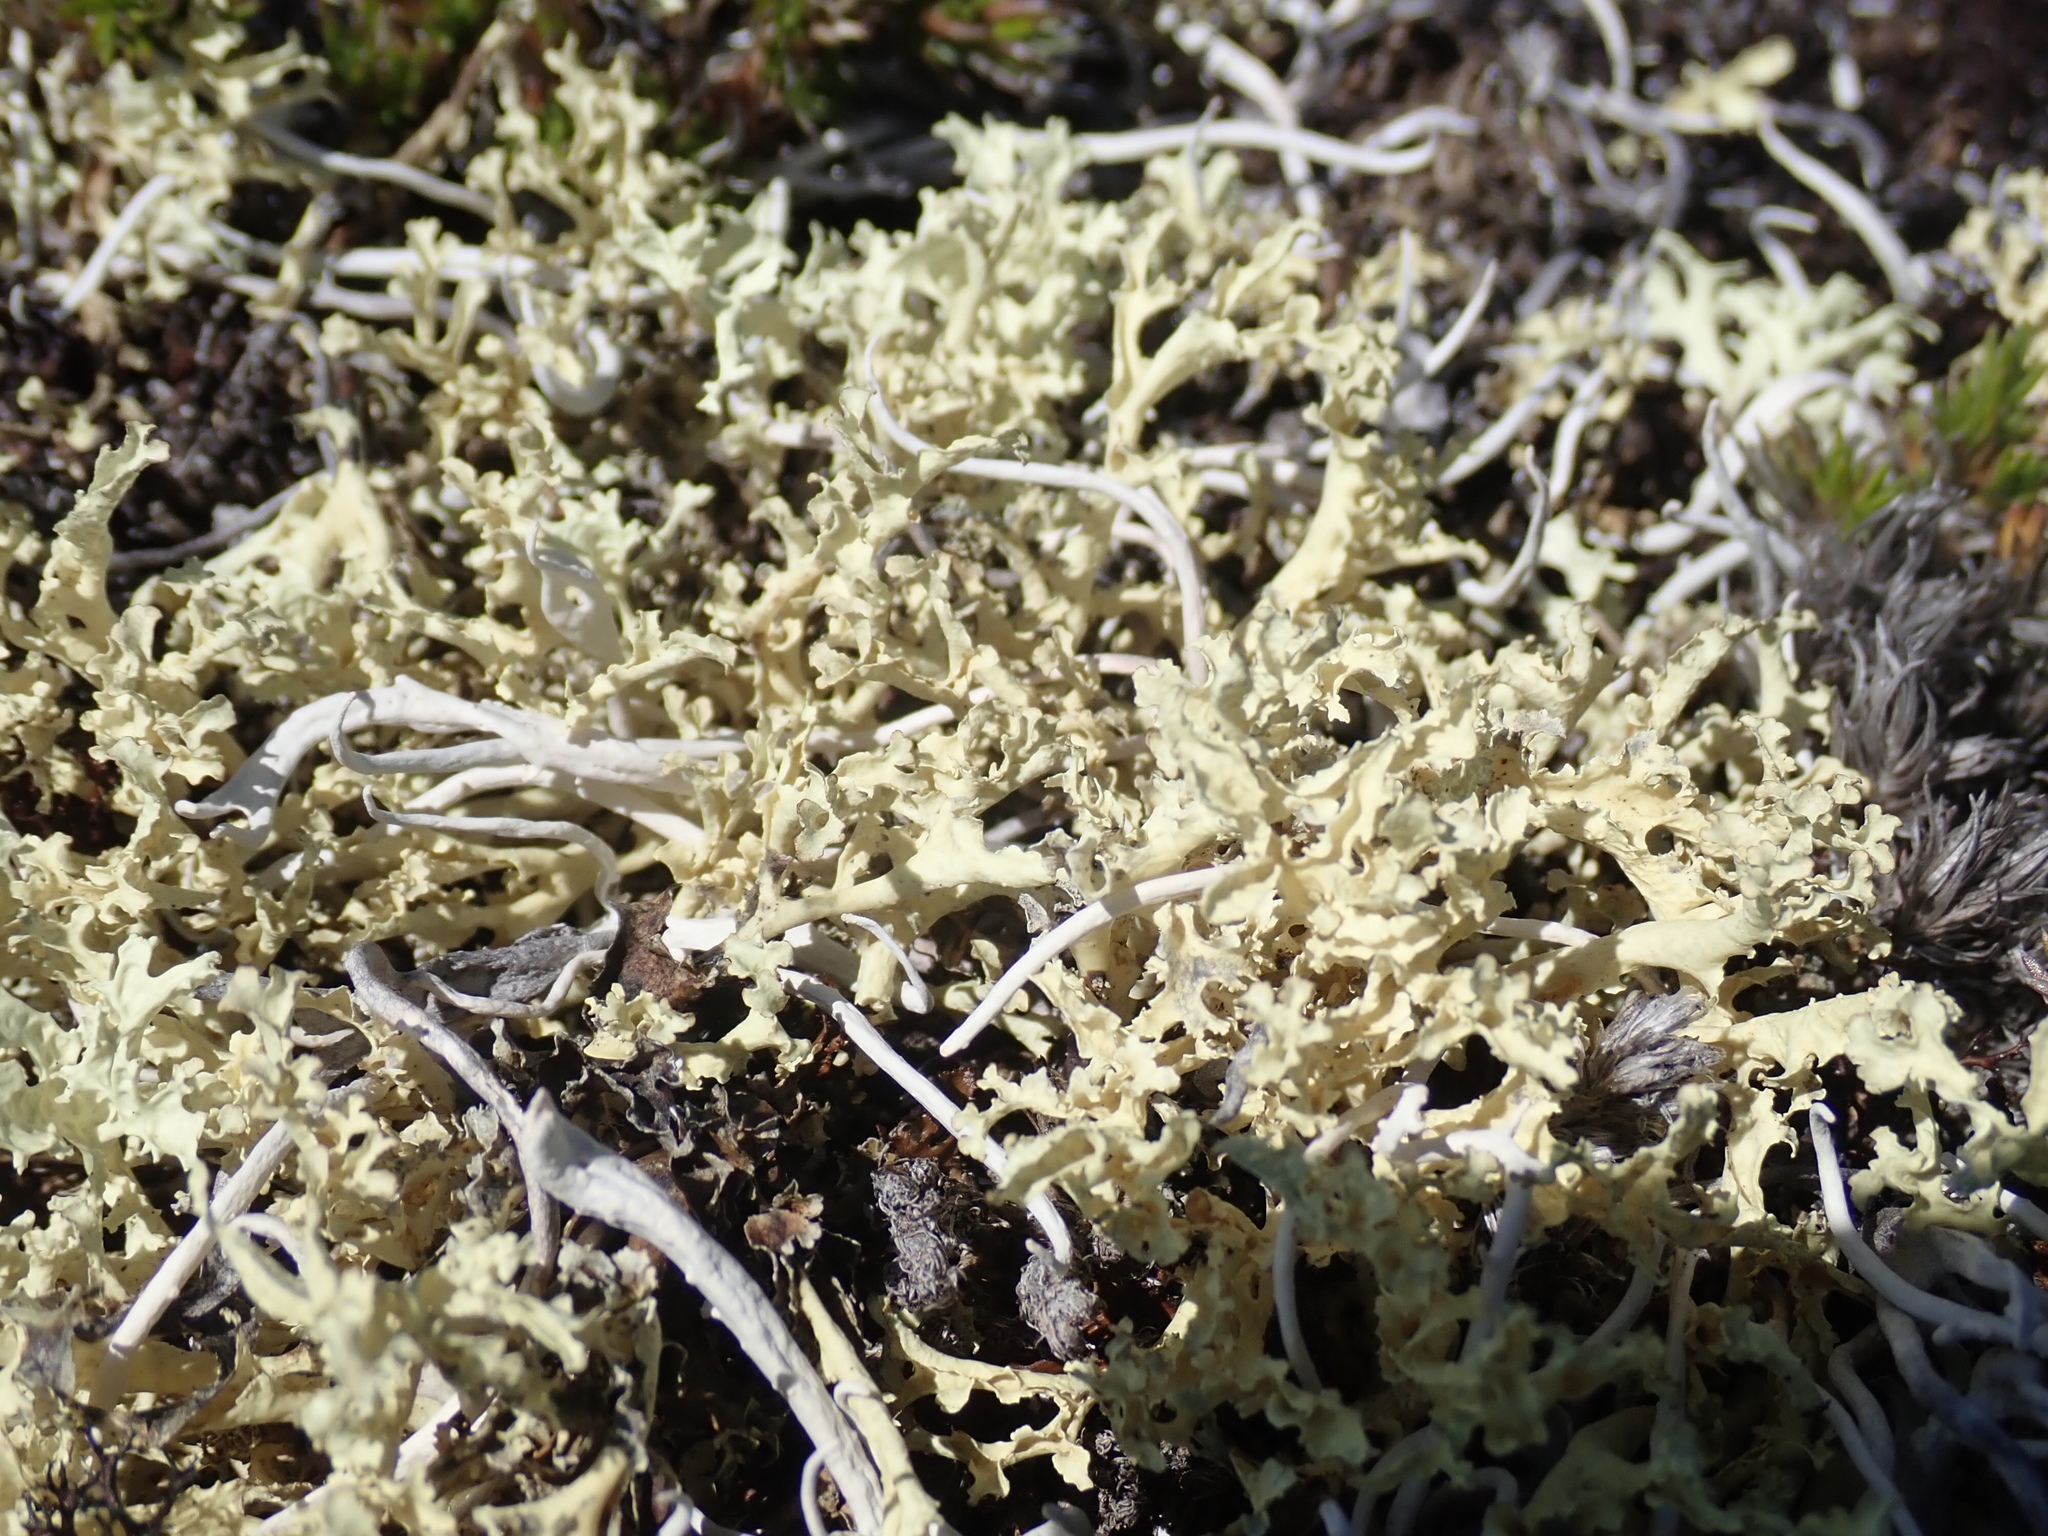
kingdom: Fungi
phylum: Ascomycota
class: Lecanoromycetes
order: Lecanorales
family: Parmeliaceae
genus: Nephromopsis
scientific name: Nephromopsis cucullata
